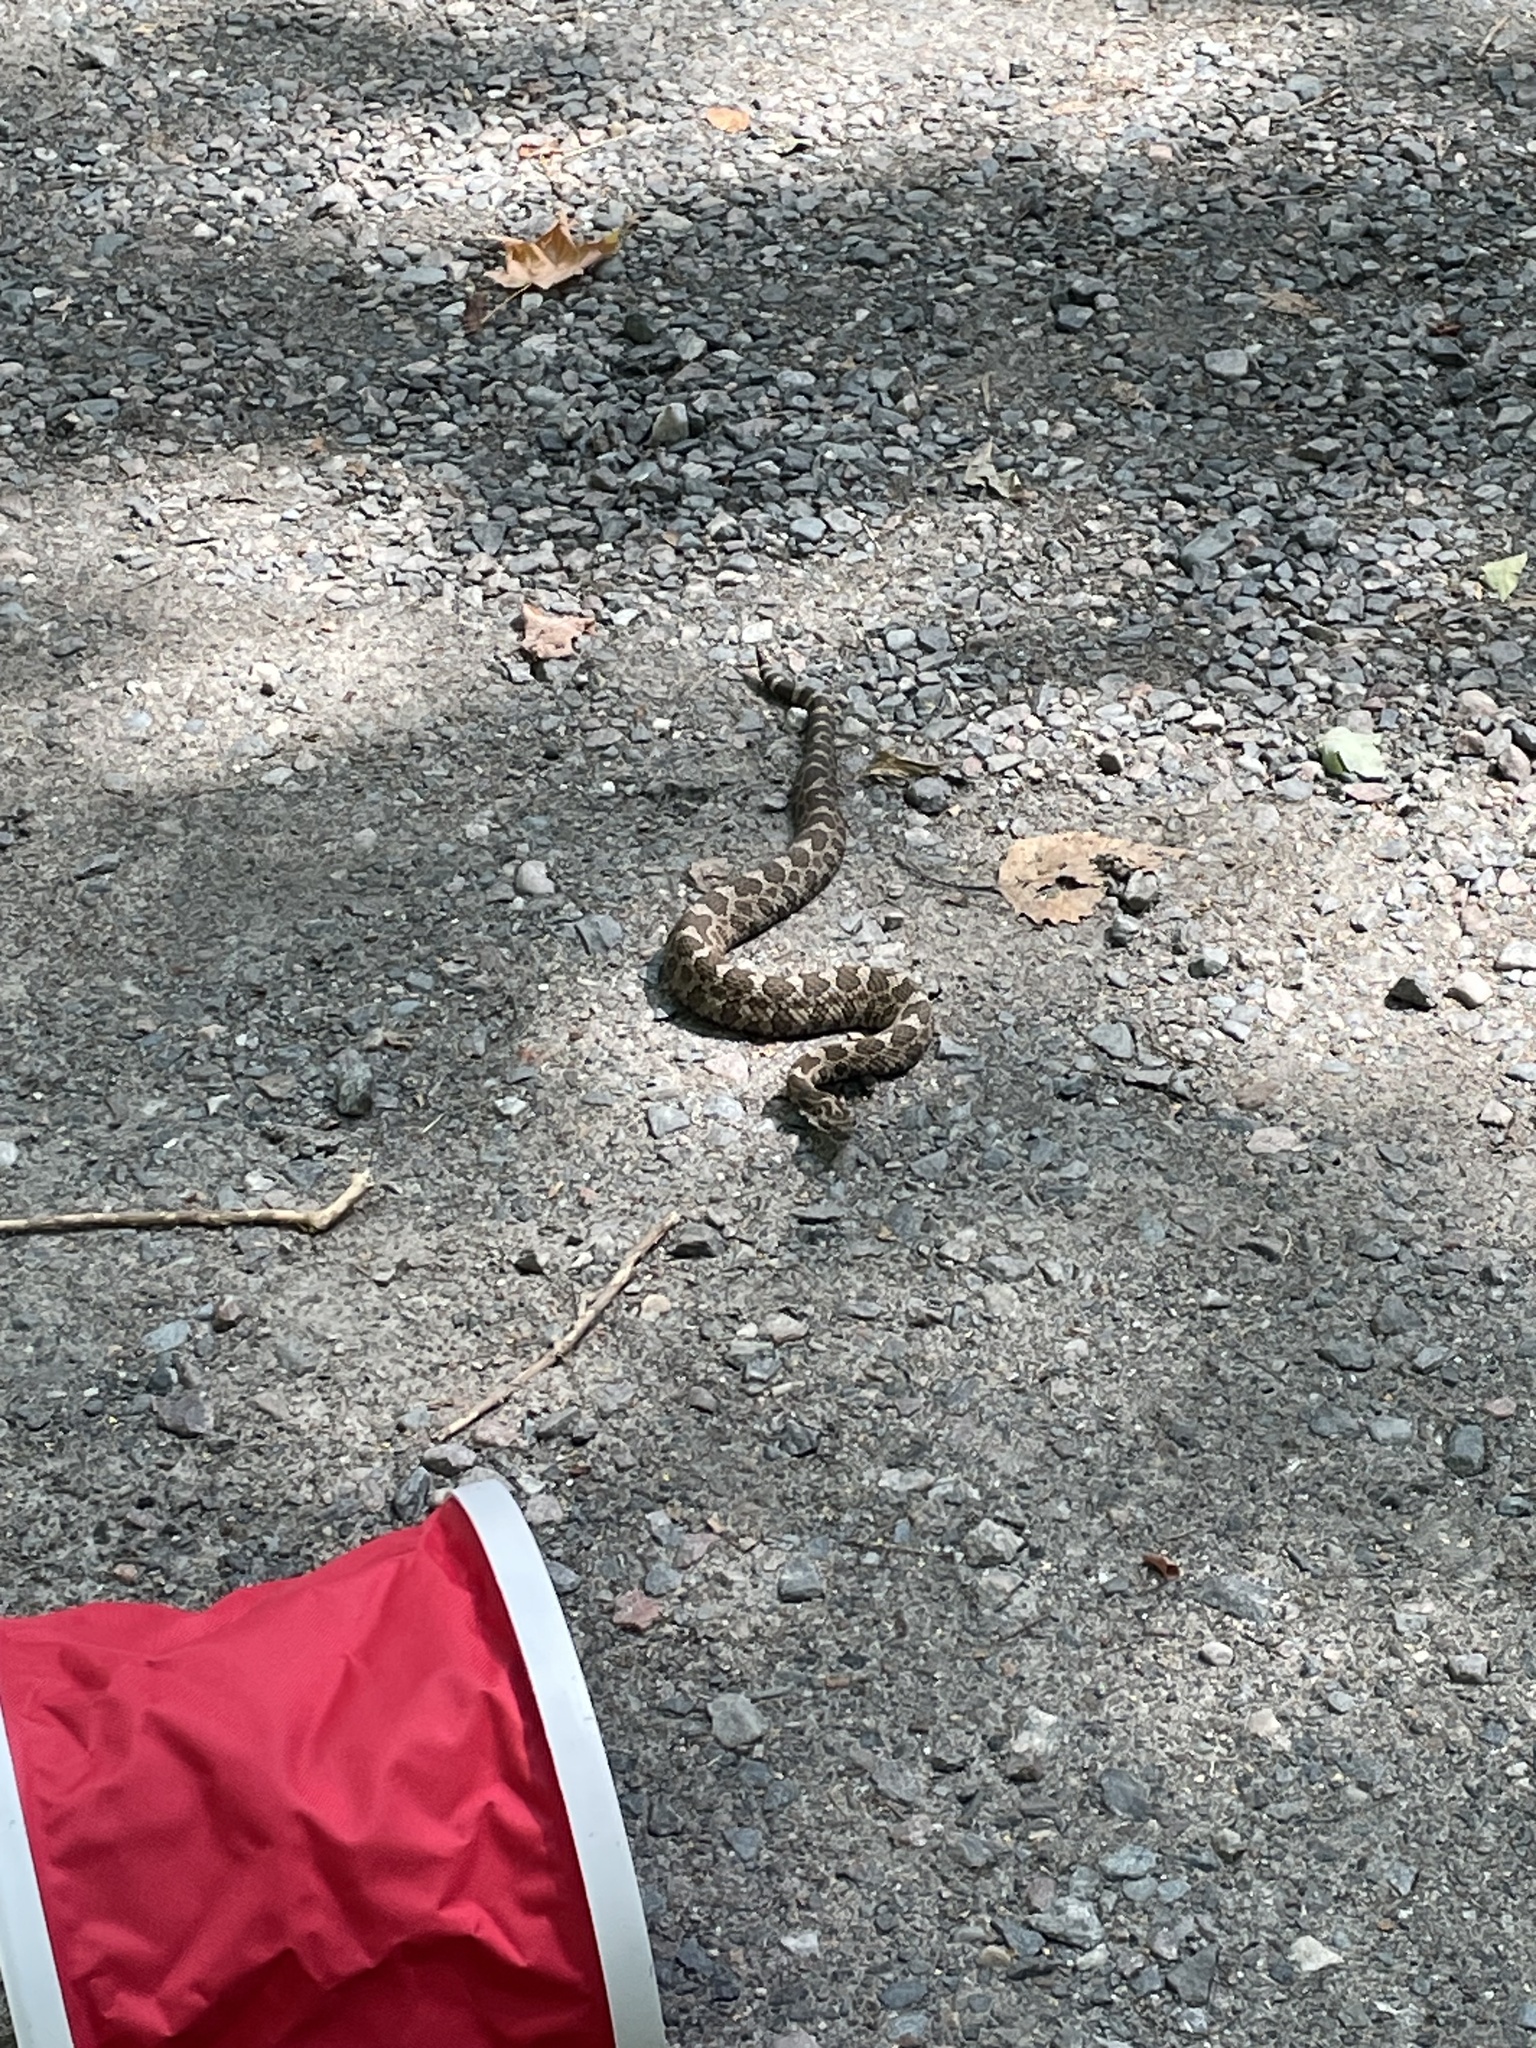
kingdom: Animalia
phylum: Chordata
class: Squamata
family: Viperidae
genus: Sistrurus
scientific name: Sistrurus catenatus
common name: Massasauga
